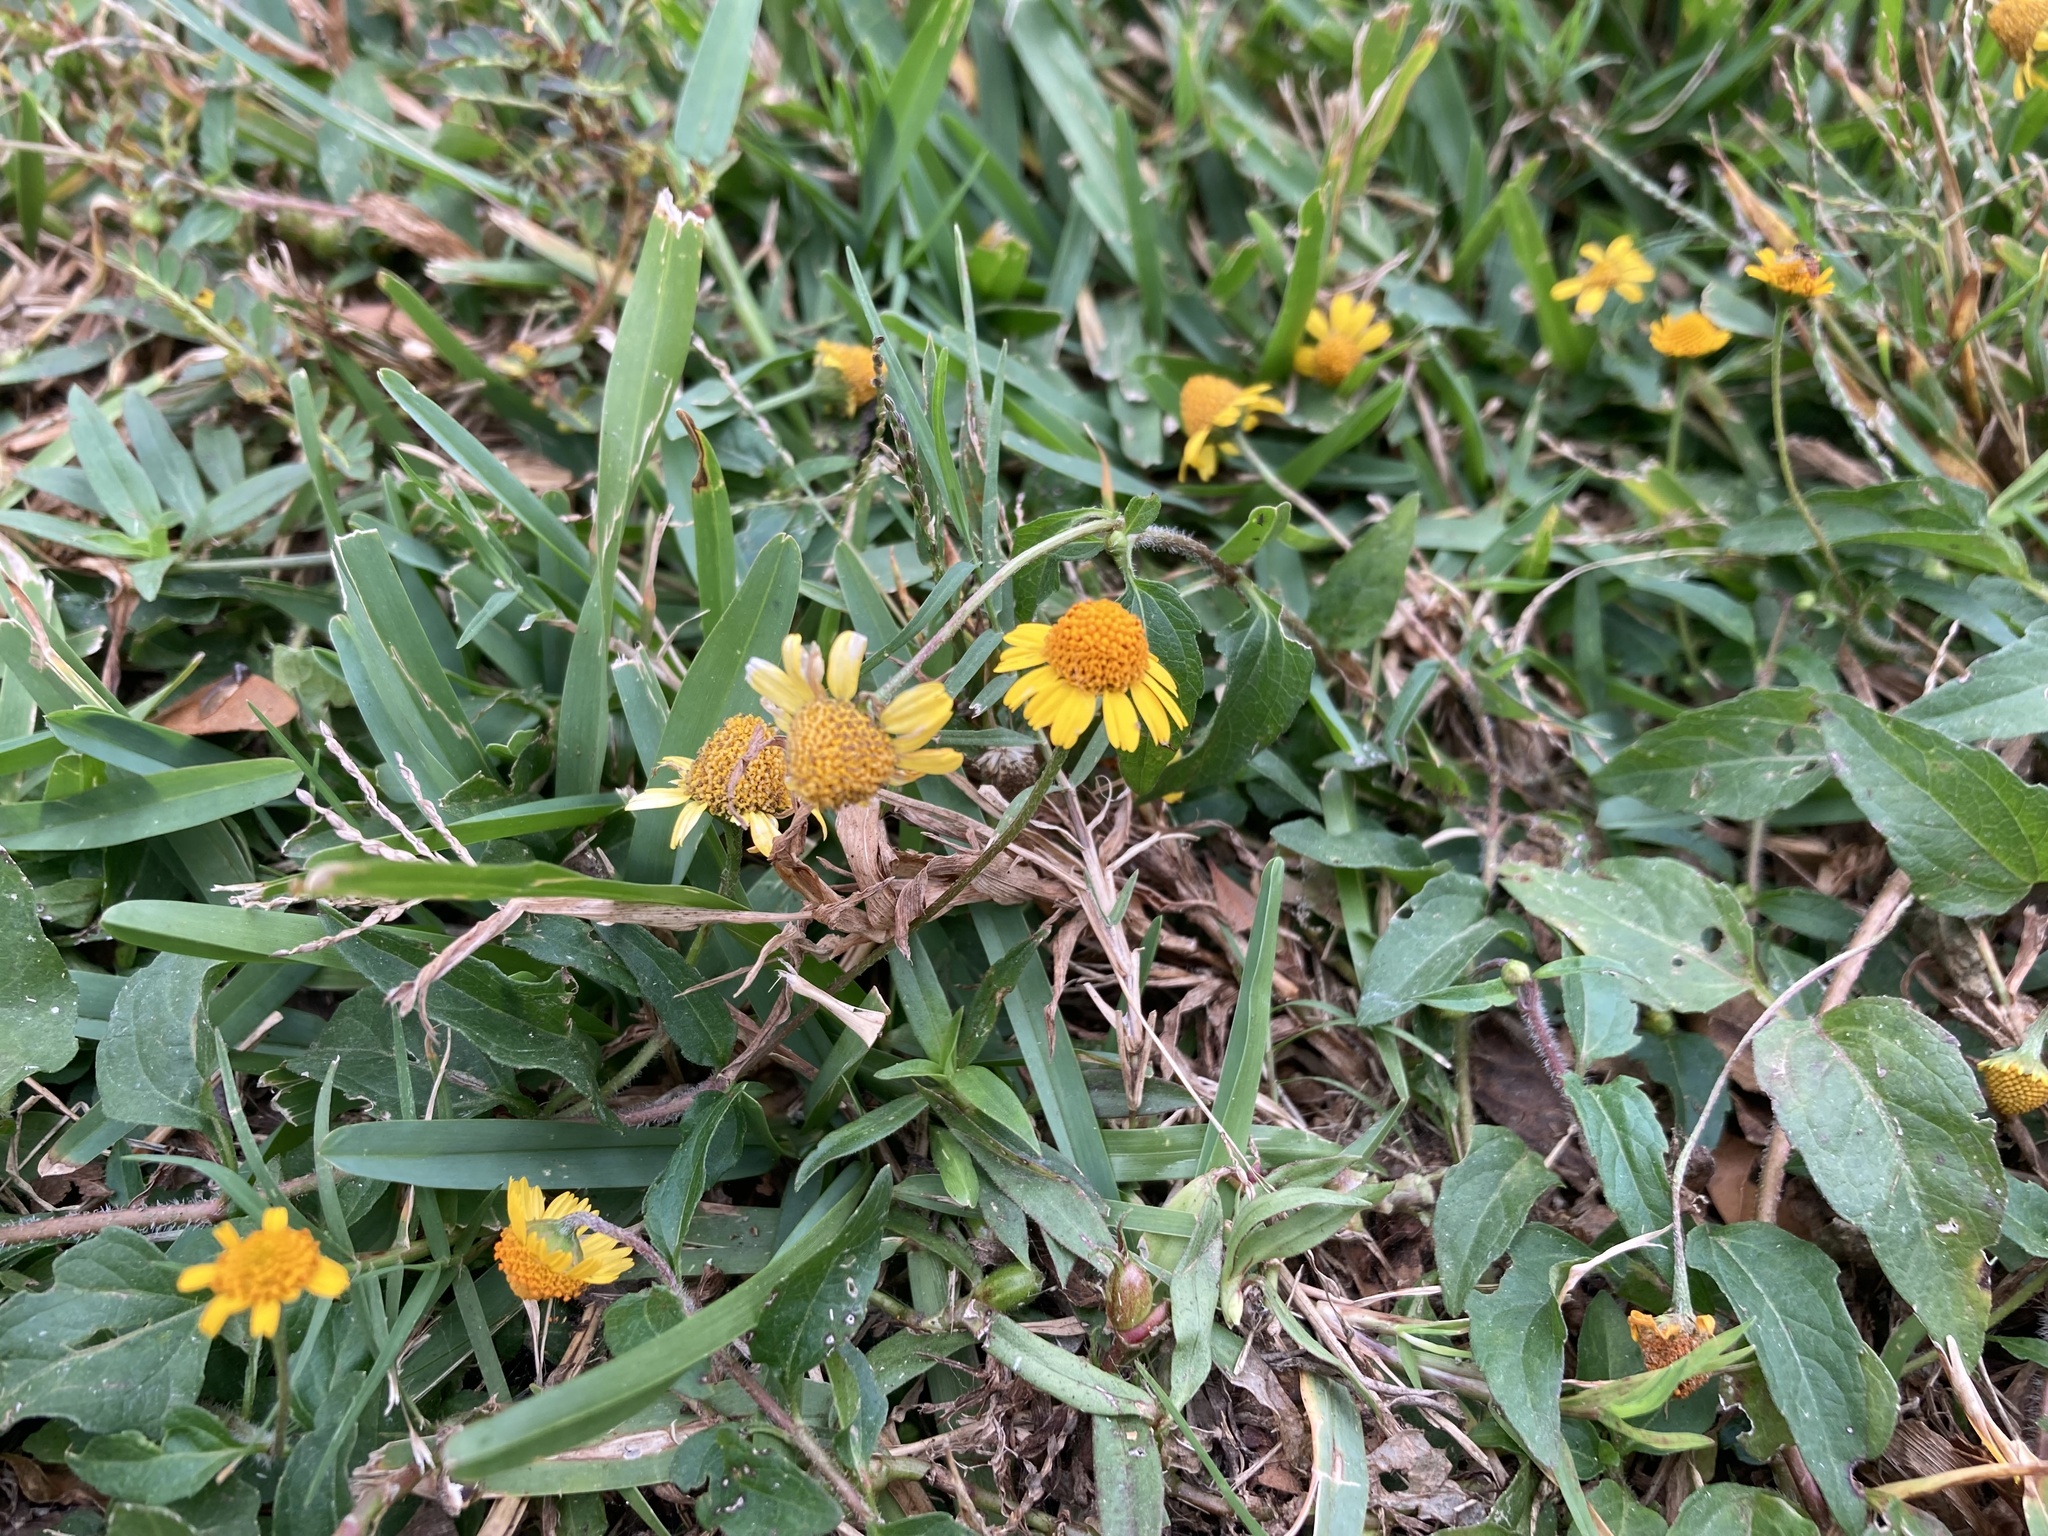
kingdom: Plantae
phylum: Tracheophyta
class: Magnoliopsida
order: Asterales
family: Asteraceae
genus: Acmella
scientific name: Acmella repens
